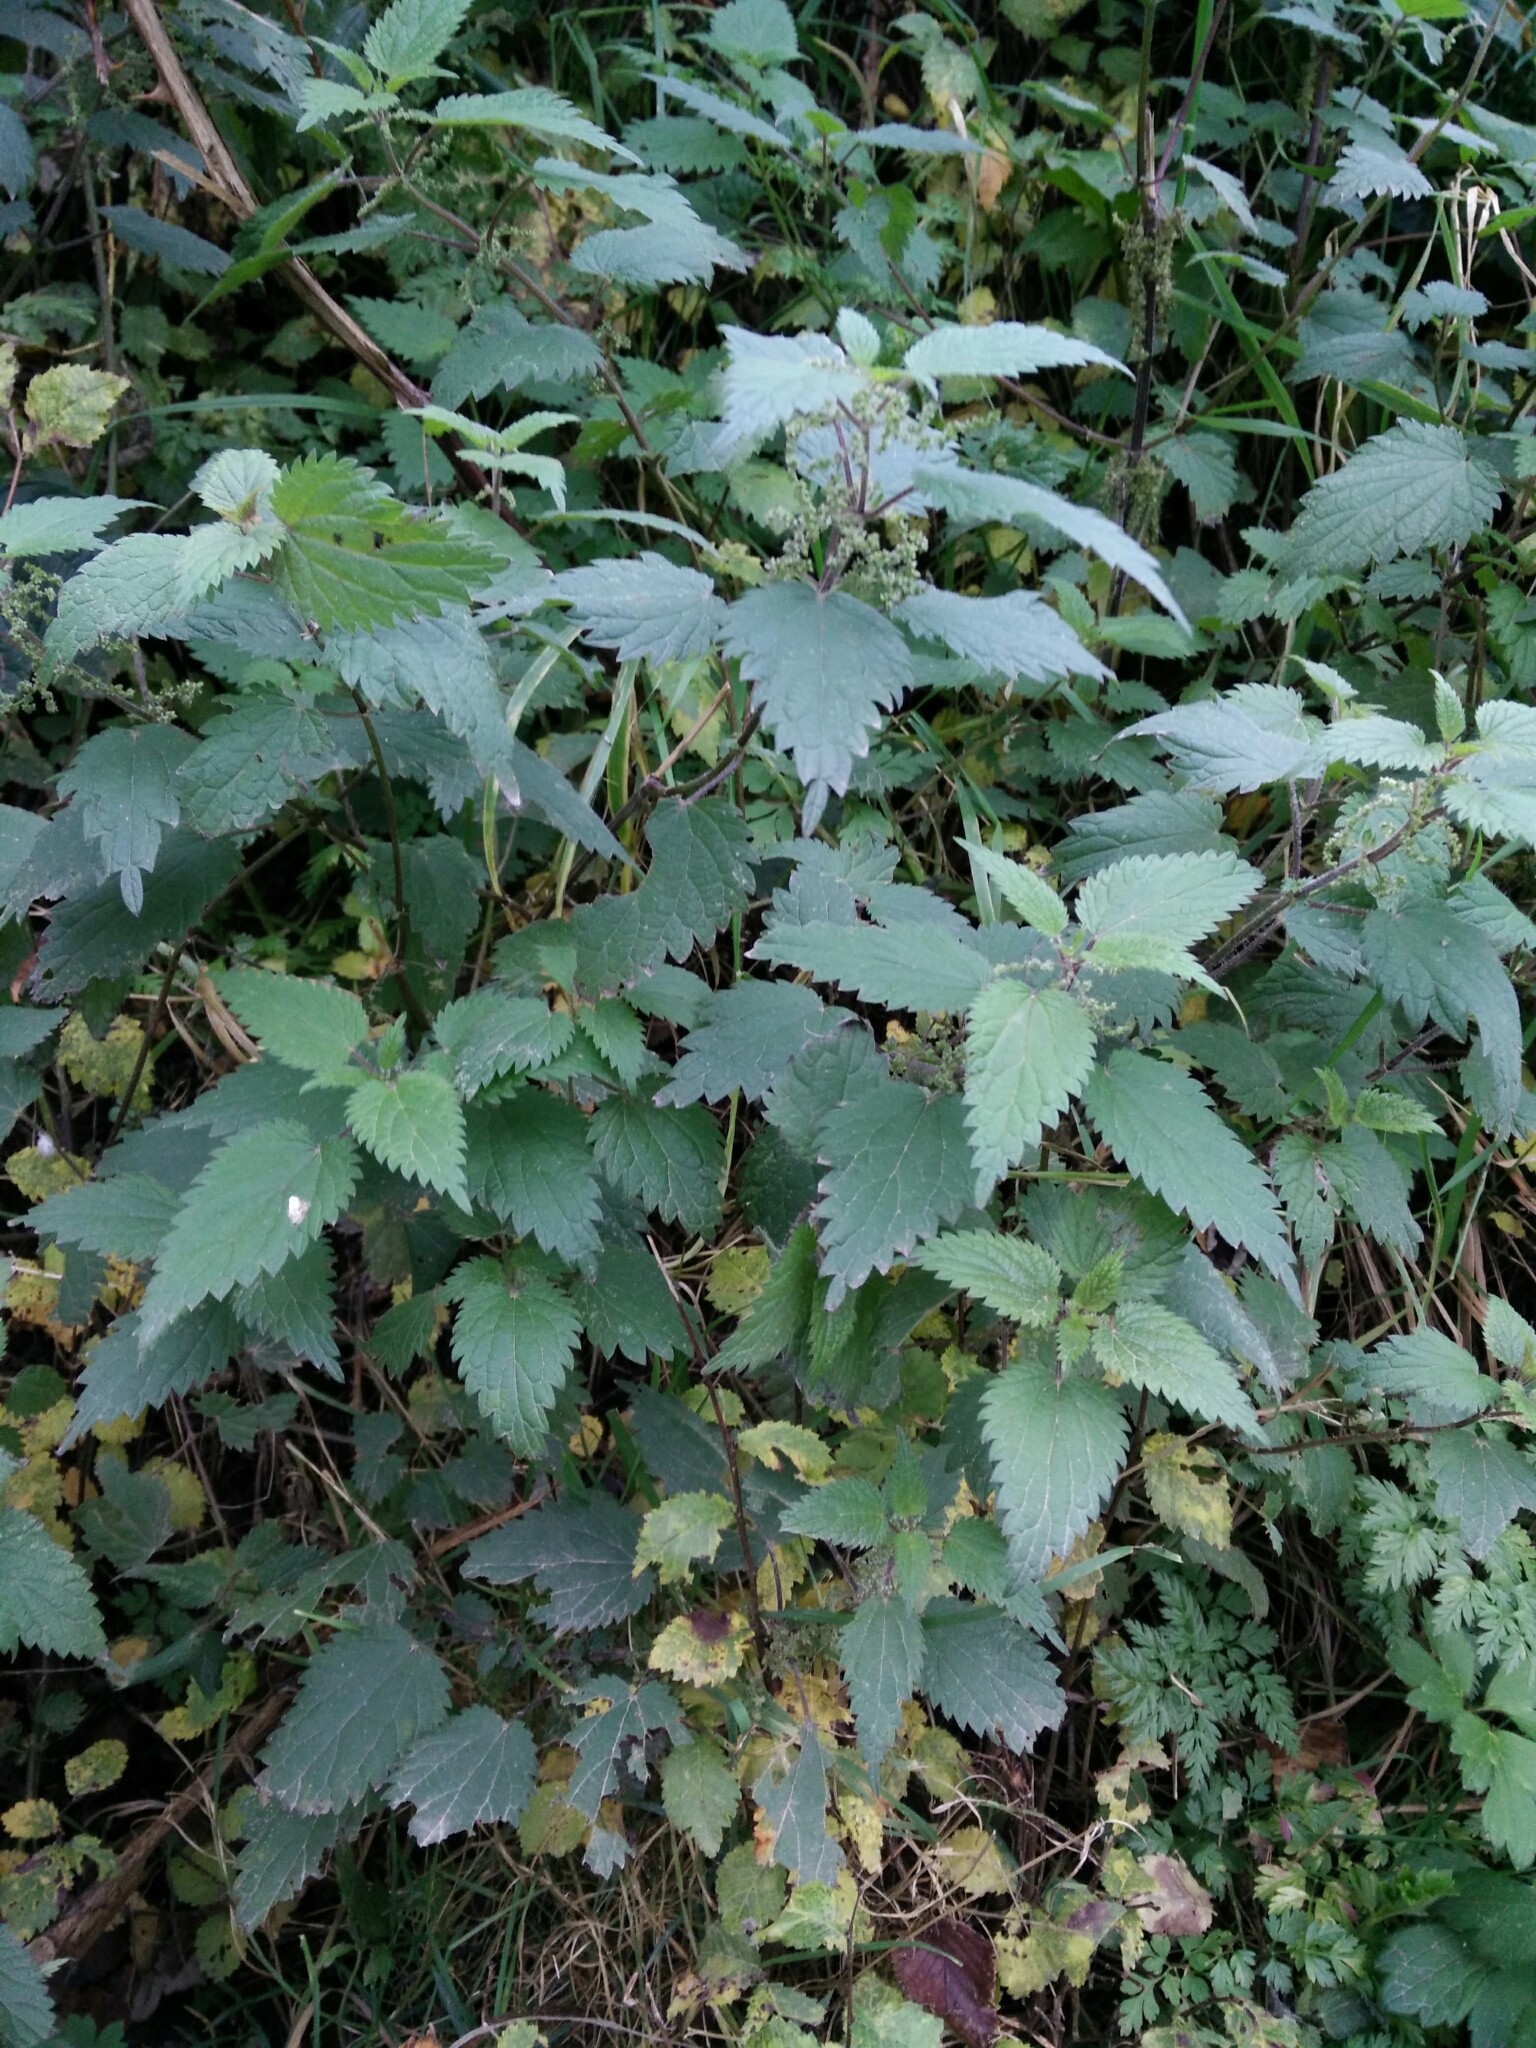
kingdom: Plantae
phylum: Tracheophyta
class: Magnoliopsida
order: Rosales
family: Urticaceae
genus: Urtica
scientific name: Urtica dioica
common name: Common nettle
